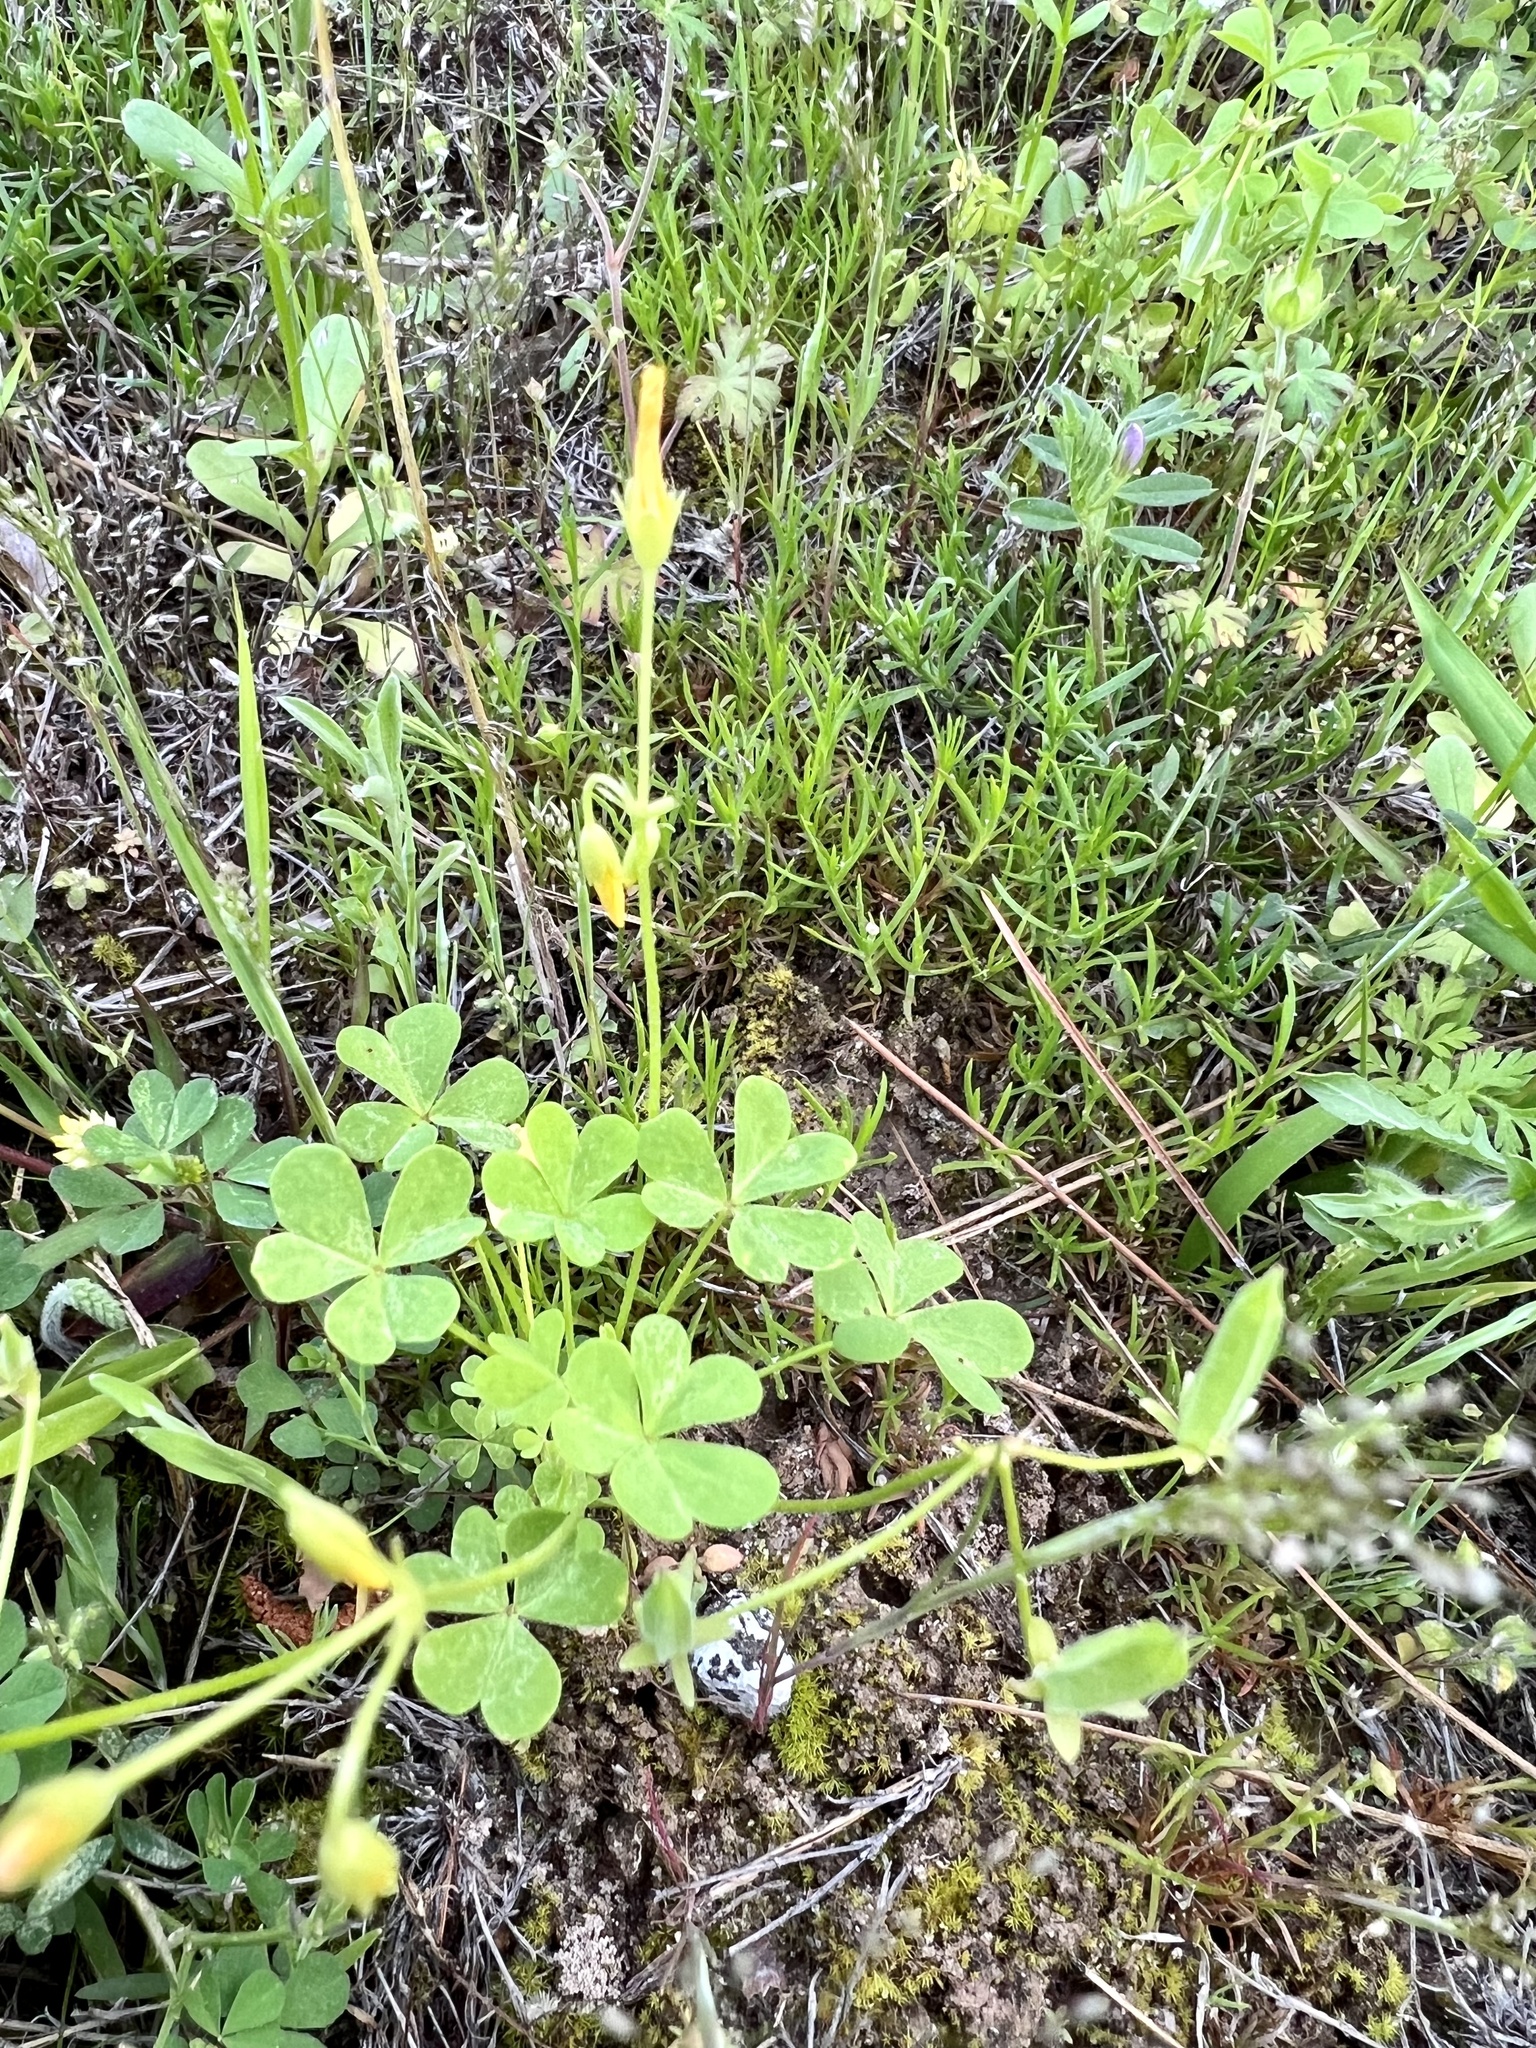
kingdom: Plantae
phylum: Tracheophyta
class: Magnoliopsida
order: Oxalidales
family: Oxalidaceae
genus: Oxalis
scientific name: Oxalis corniculata
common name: Procumbent yellow-sorrel
